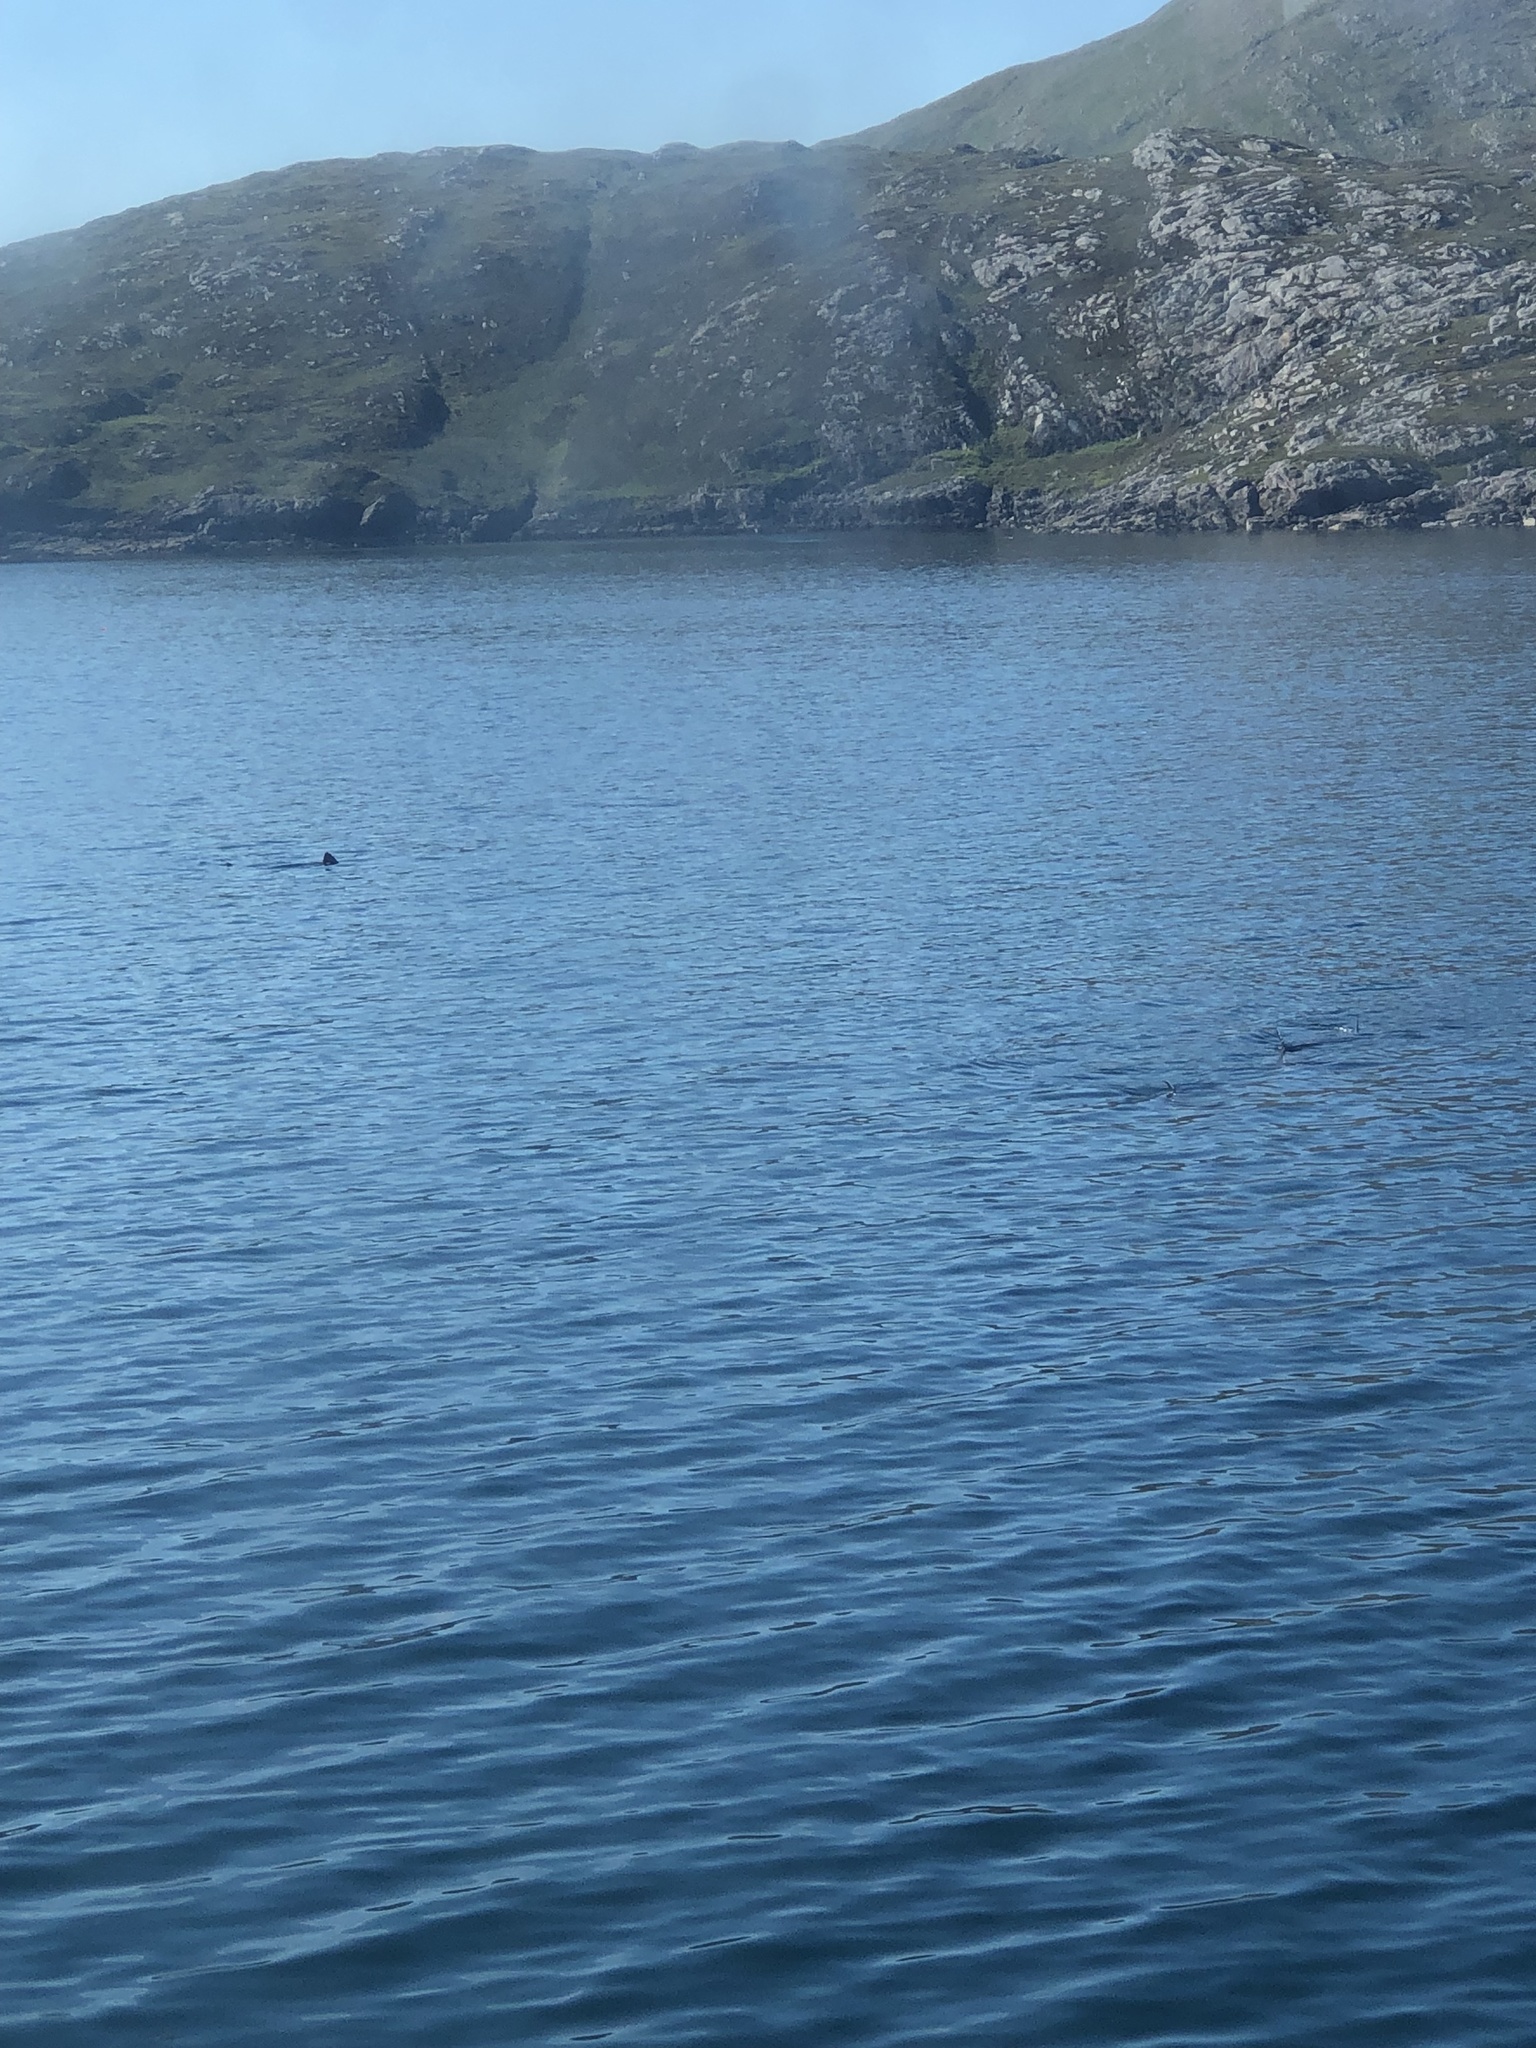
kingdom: Animalia
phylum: Chordata
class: Elasmobranchii
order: Lamniformes
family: Cetorhinidae
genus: Cetorhinus
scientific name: Cetorhinus maximus
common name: Basking shark
